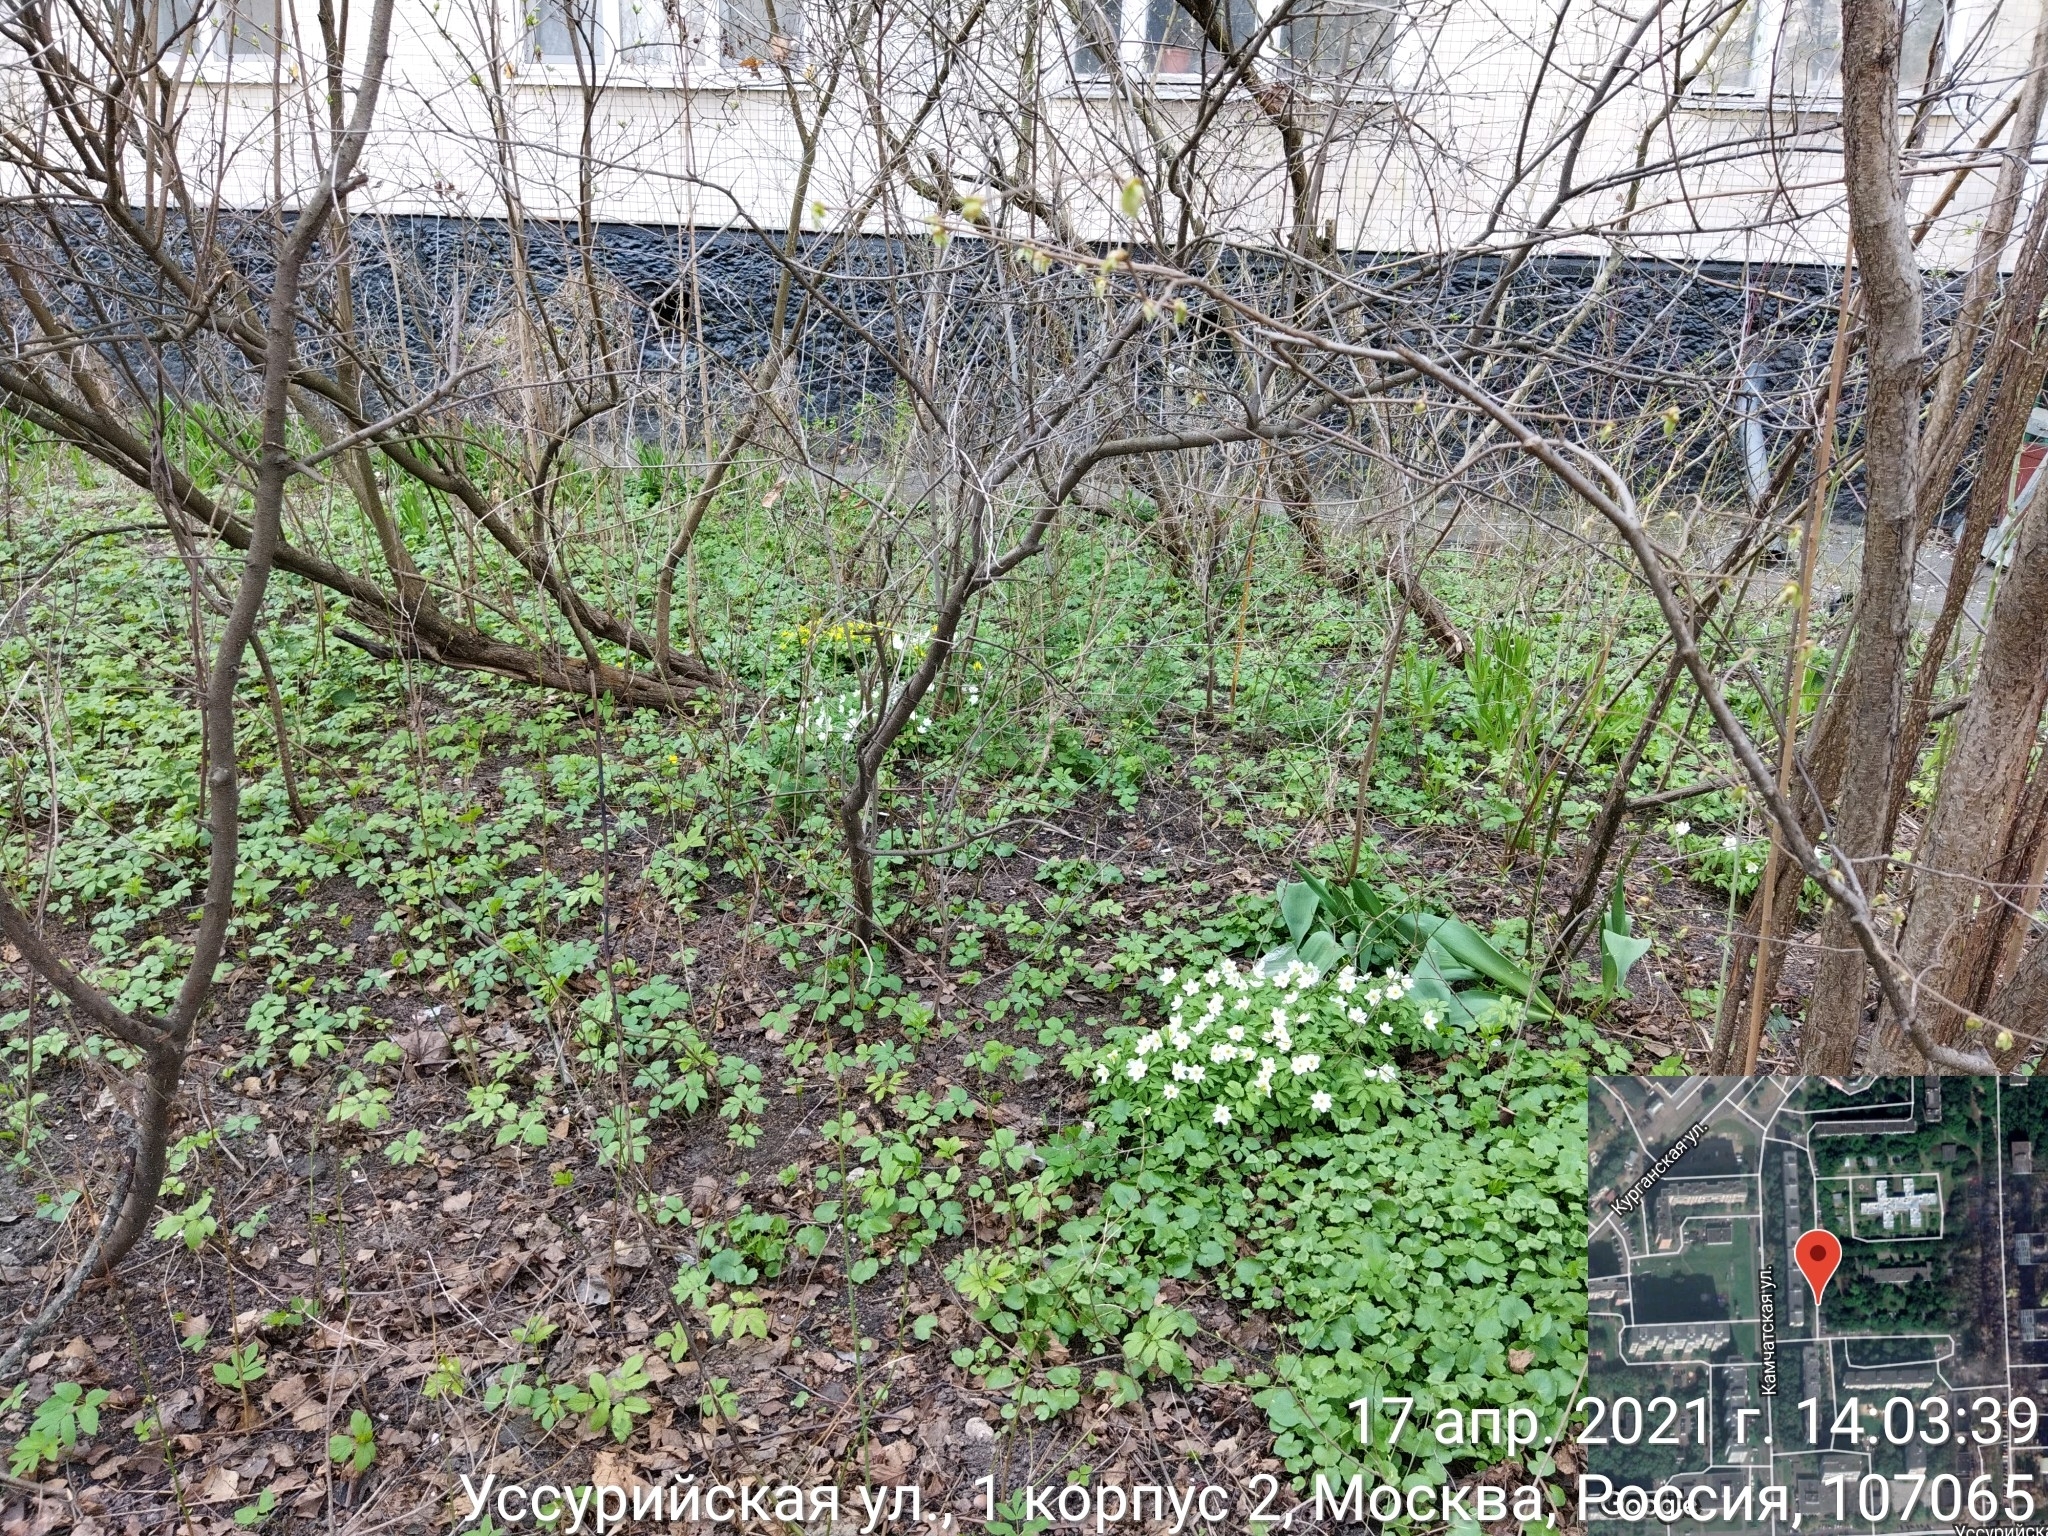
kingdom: Plantae
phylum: Tracheophyta
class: Magnoliopsida
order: Ranunculales
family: Ranunculaceae
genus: Anemone
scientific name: Anemone nemorosa
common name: Wood anemone
